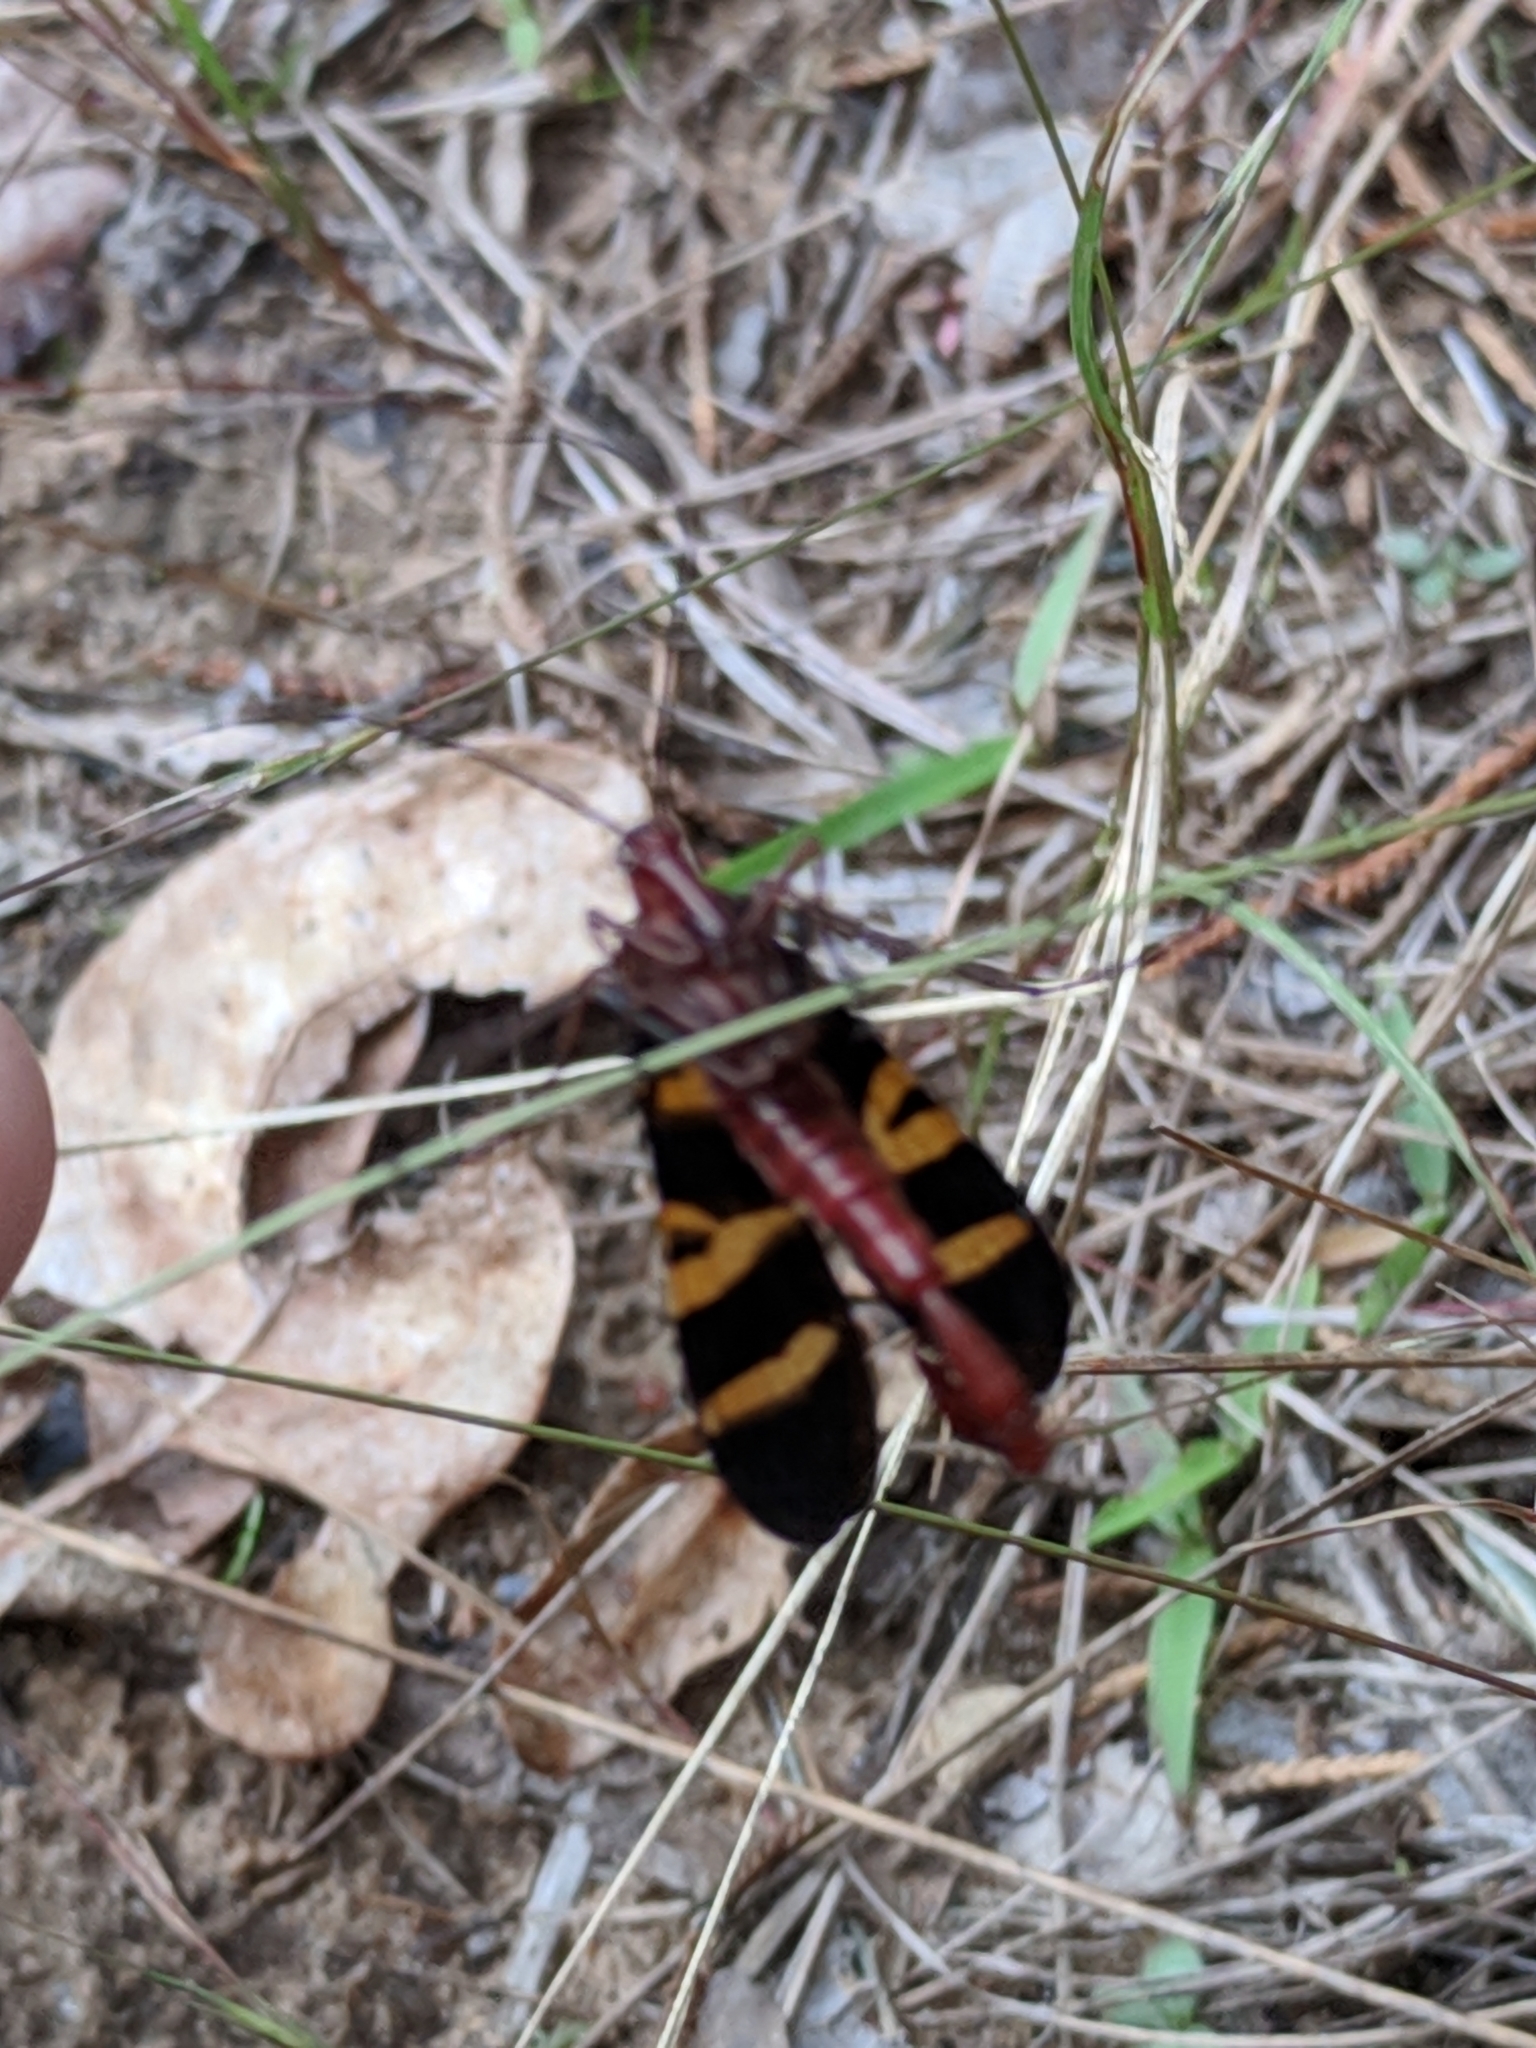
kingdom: Animalia
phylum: Arthropoda
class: Insecta
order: Mecoptera
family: Panorpidae
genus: Panorpa
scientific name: Panorpa nuptialis
